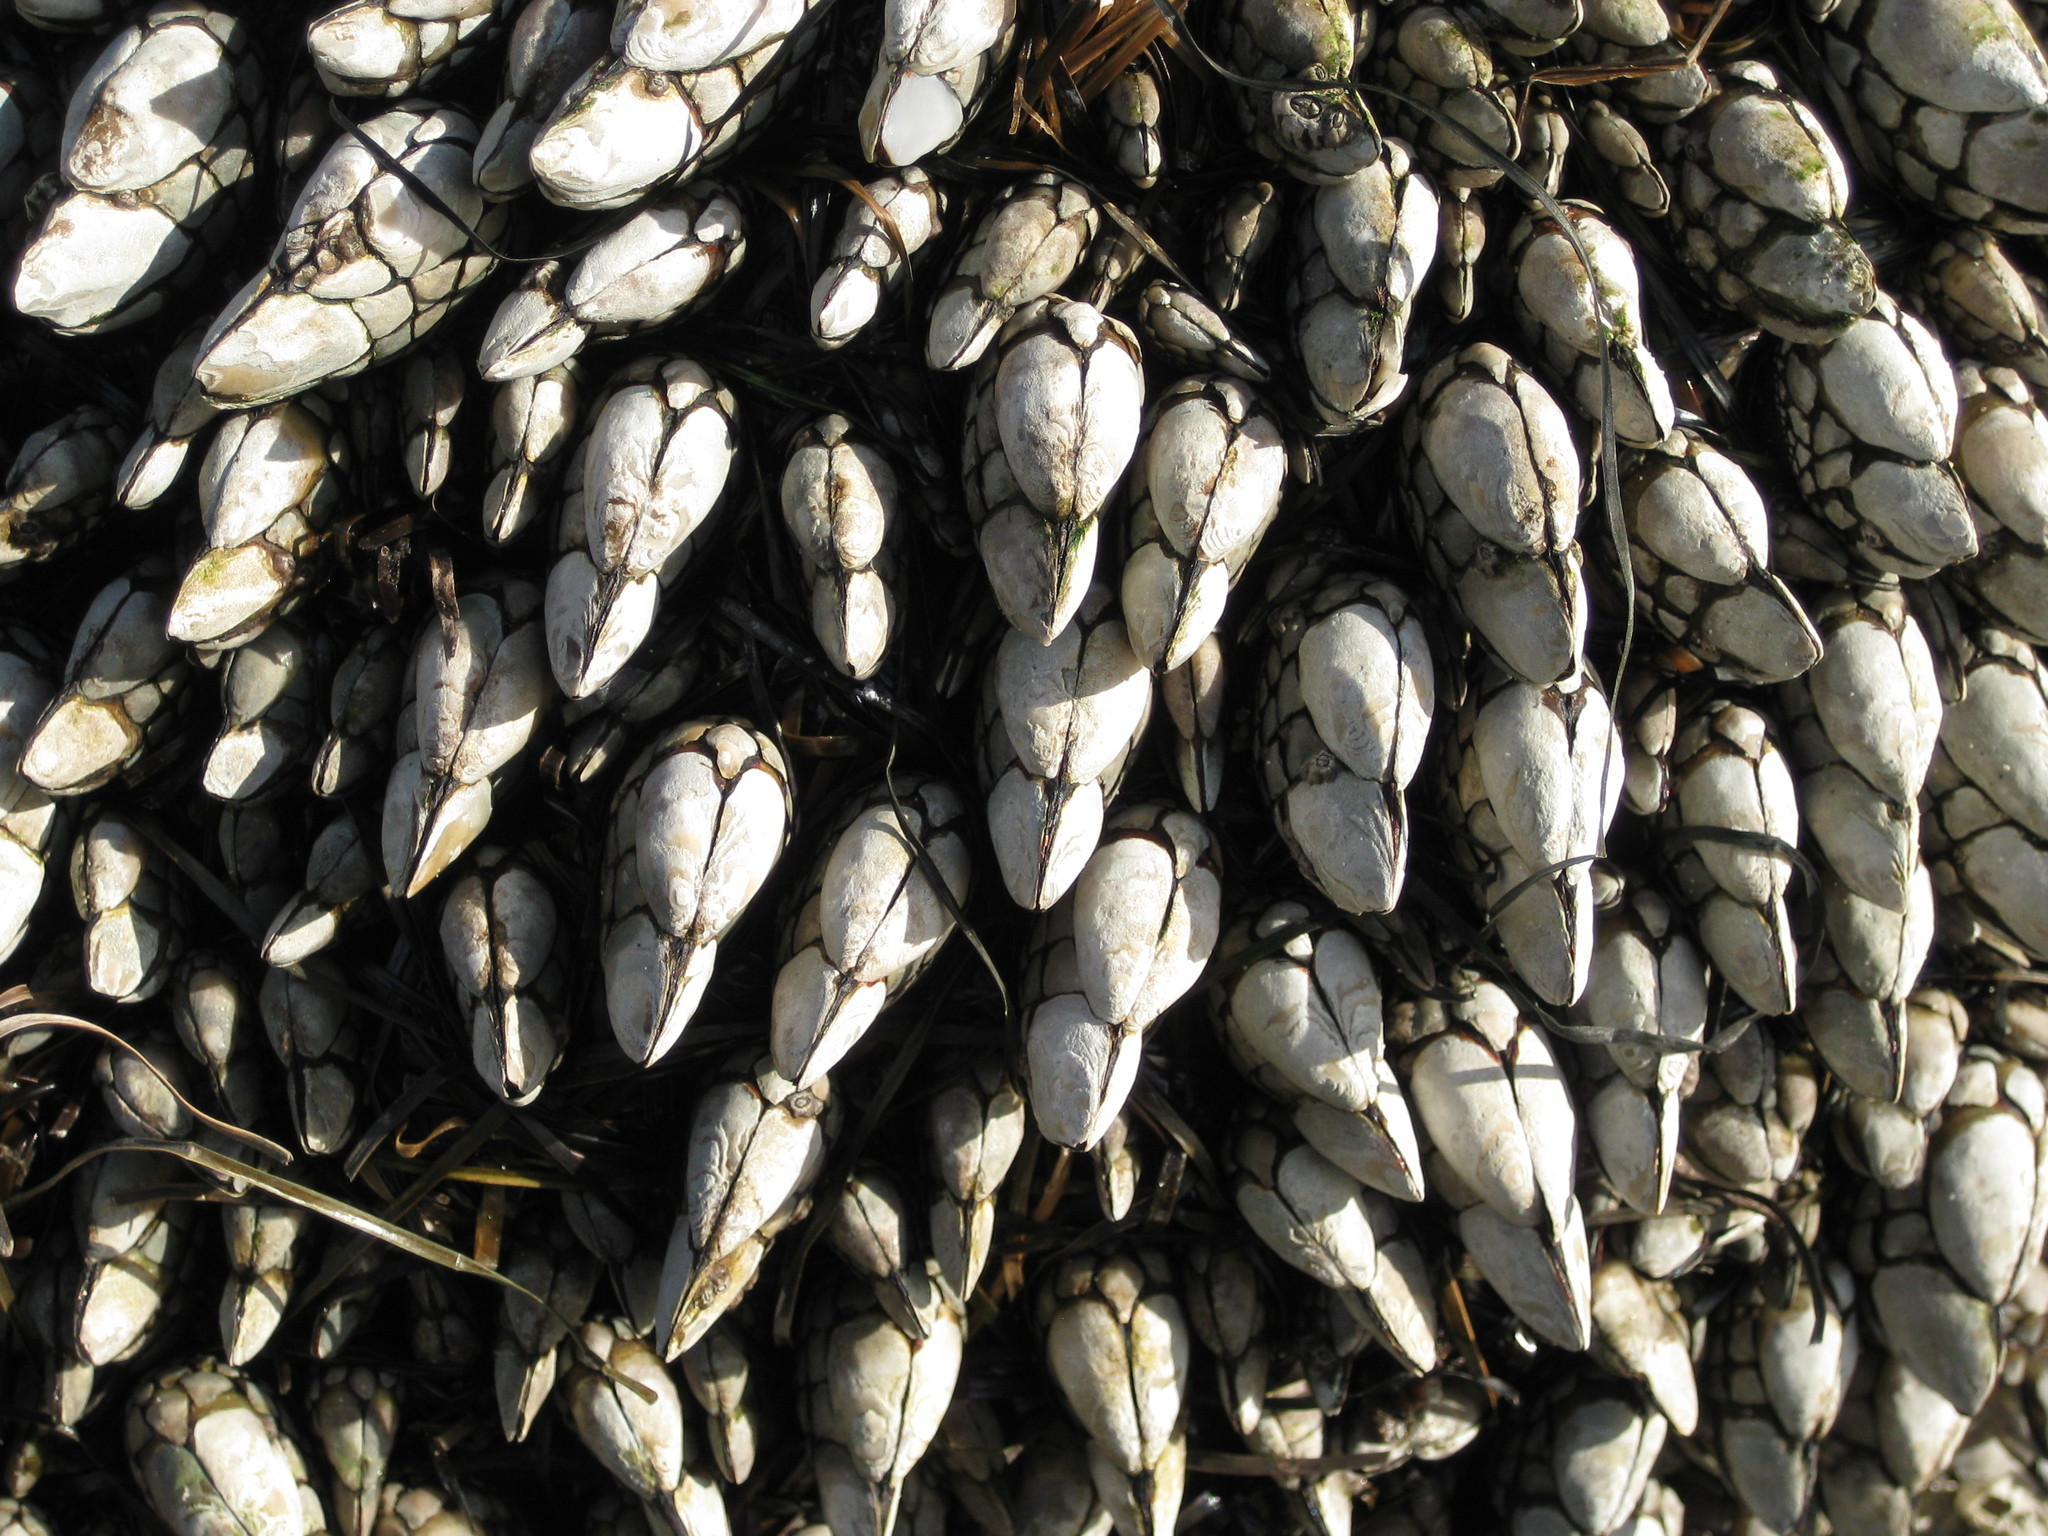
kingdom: Animalia
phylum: Arthropoda
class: Maxillopoda
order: Pedunculata
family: Pollicipedidae
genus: Pollicipes
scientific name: Pollicipes polymerus
